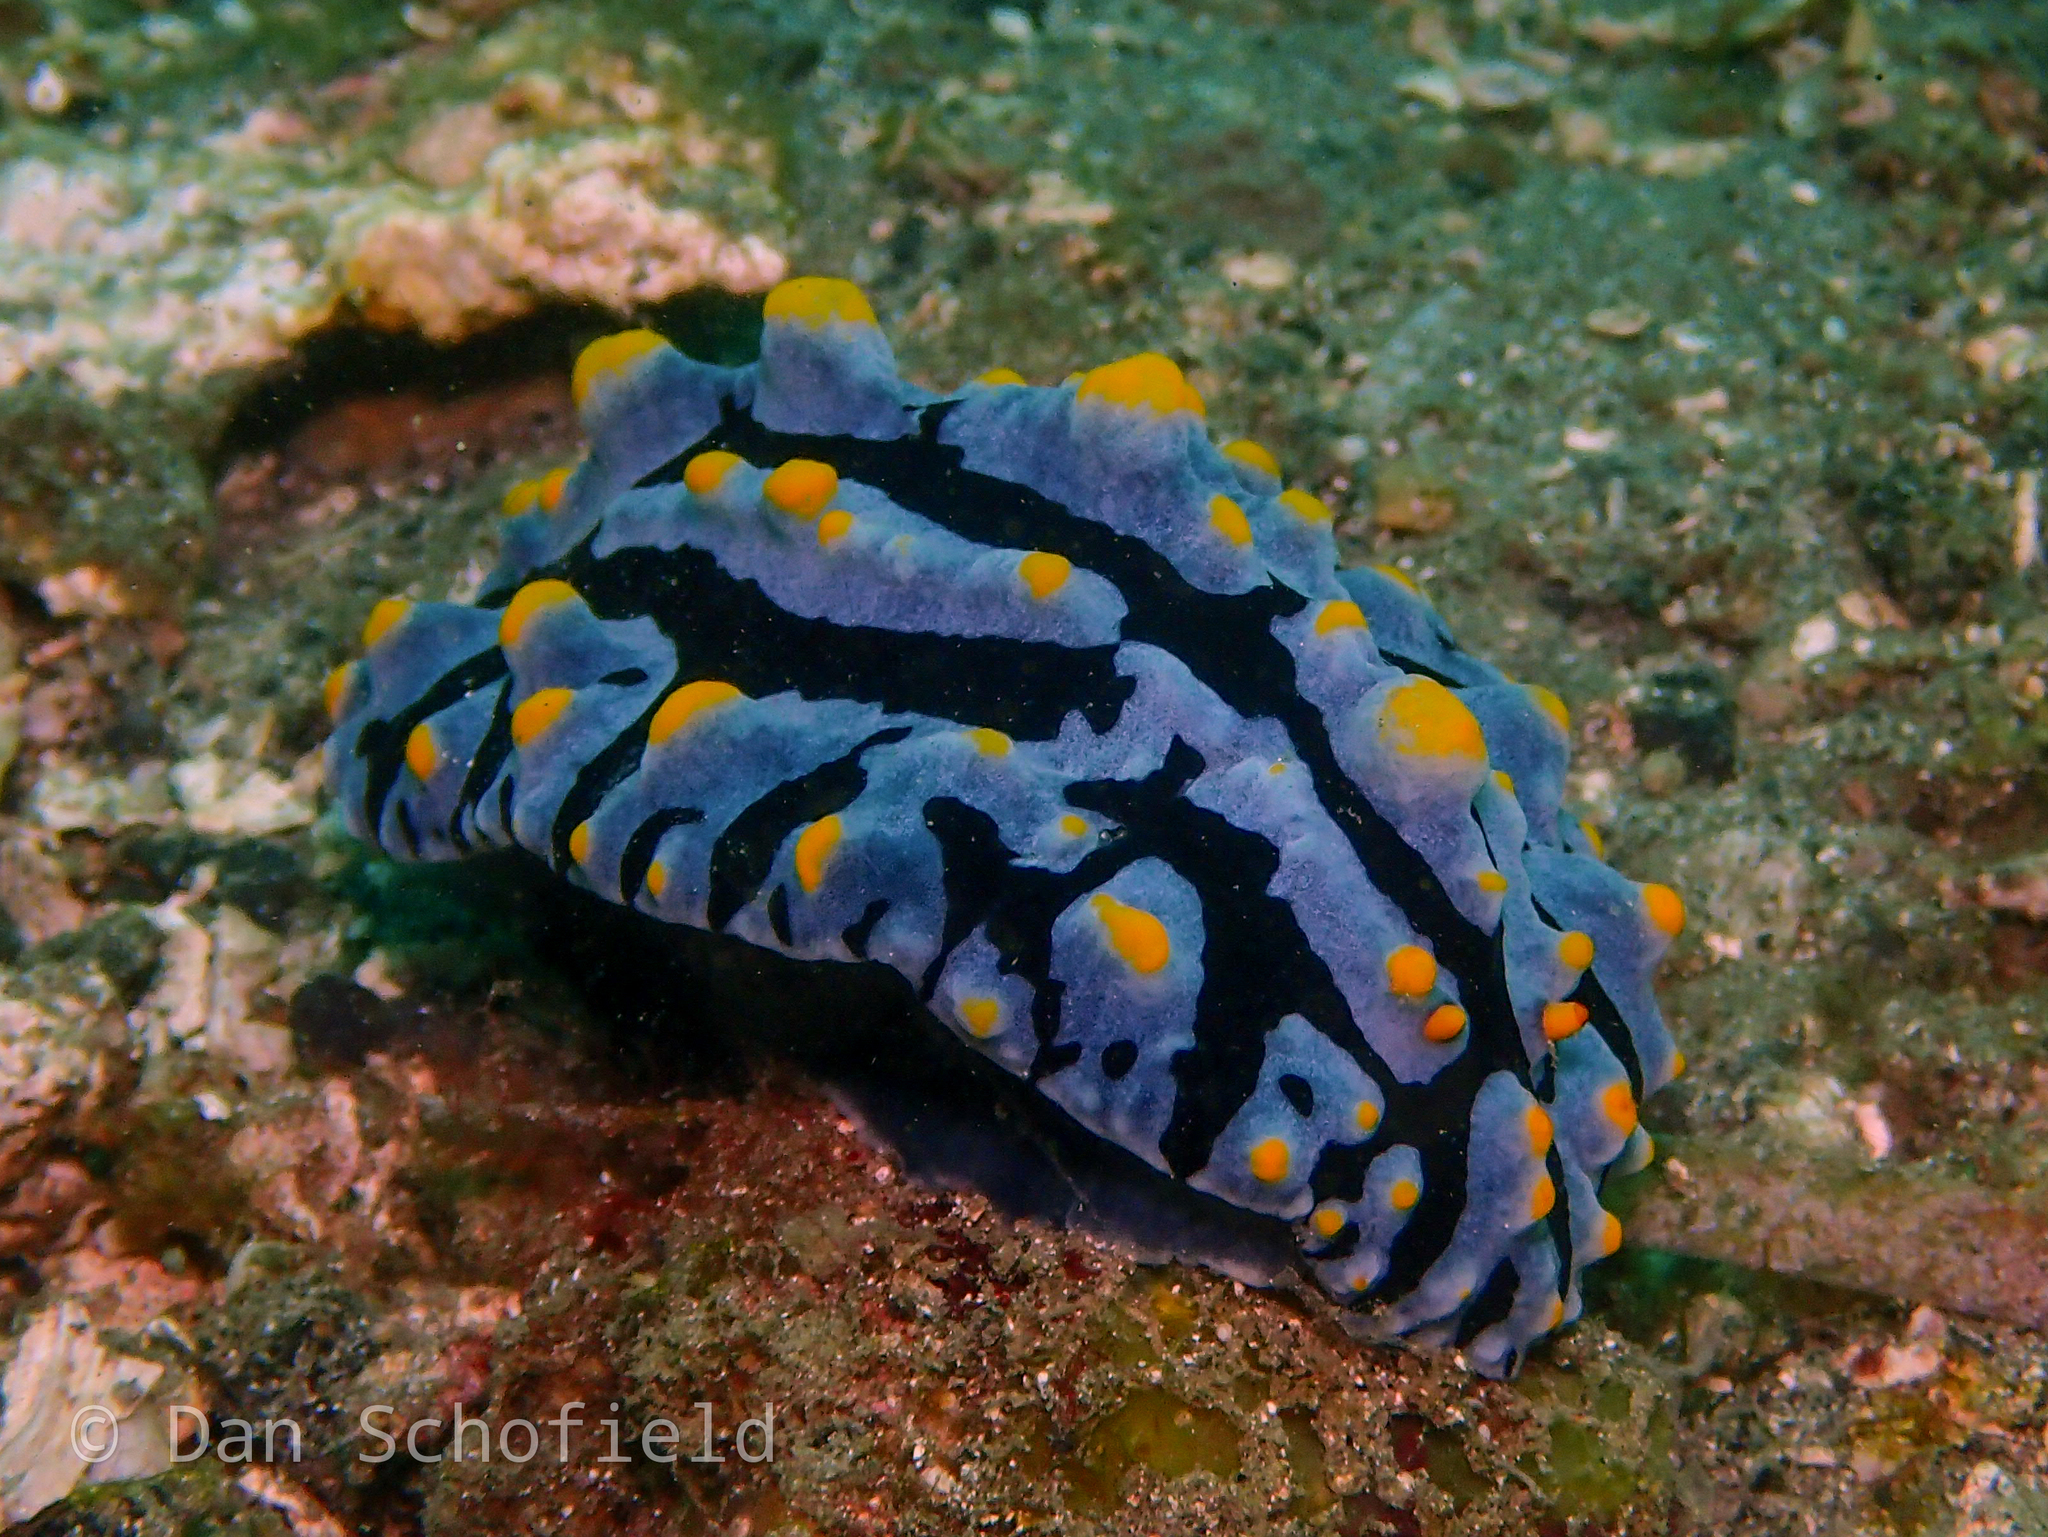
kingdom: Animalia
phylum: Mollusca
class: Gastropoda
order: Nudibranchia
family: Phyllidiidae
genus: Phyllidia
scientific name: Phyllidia varicosa
